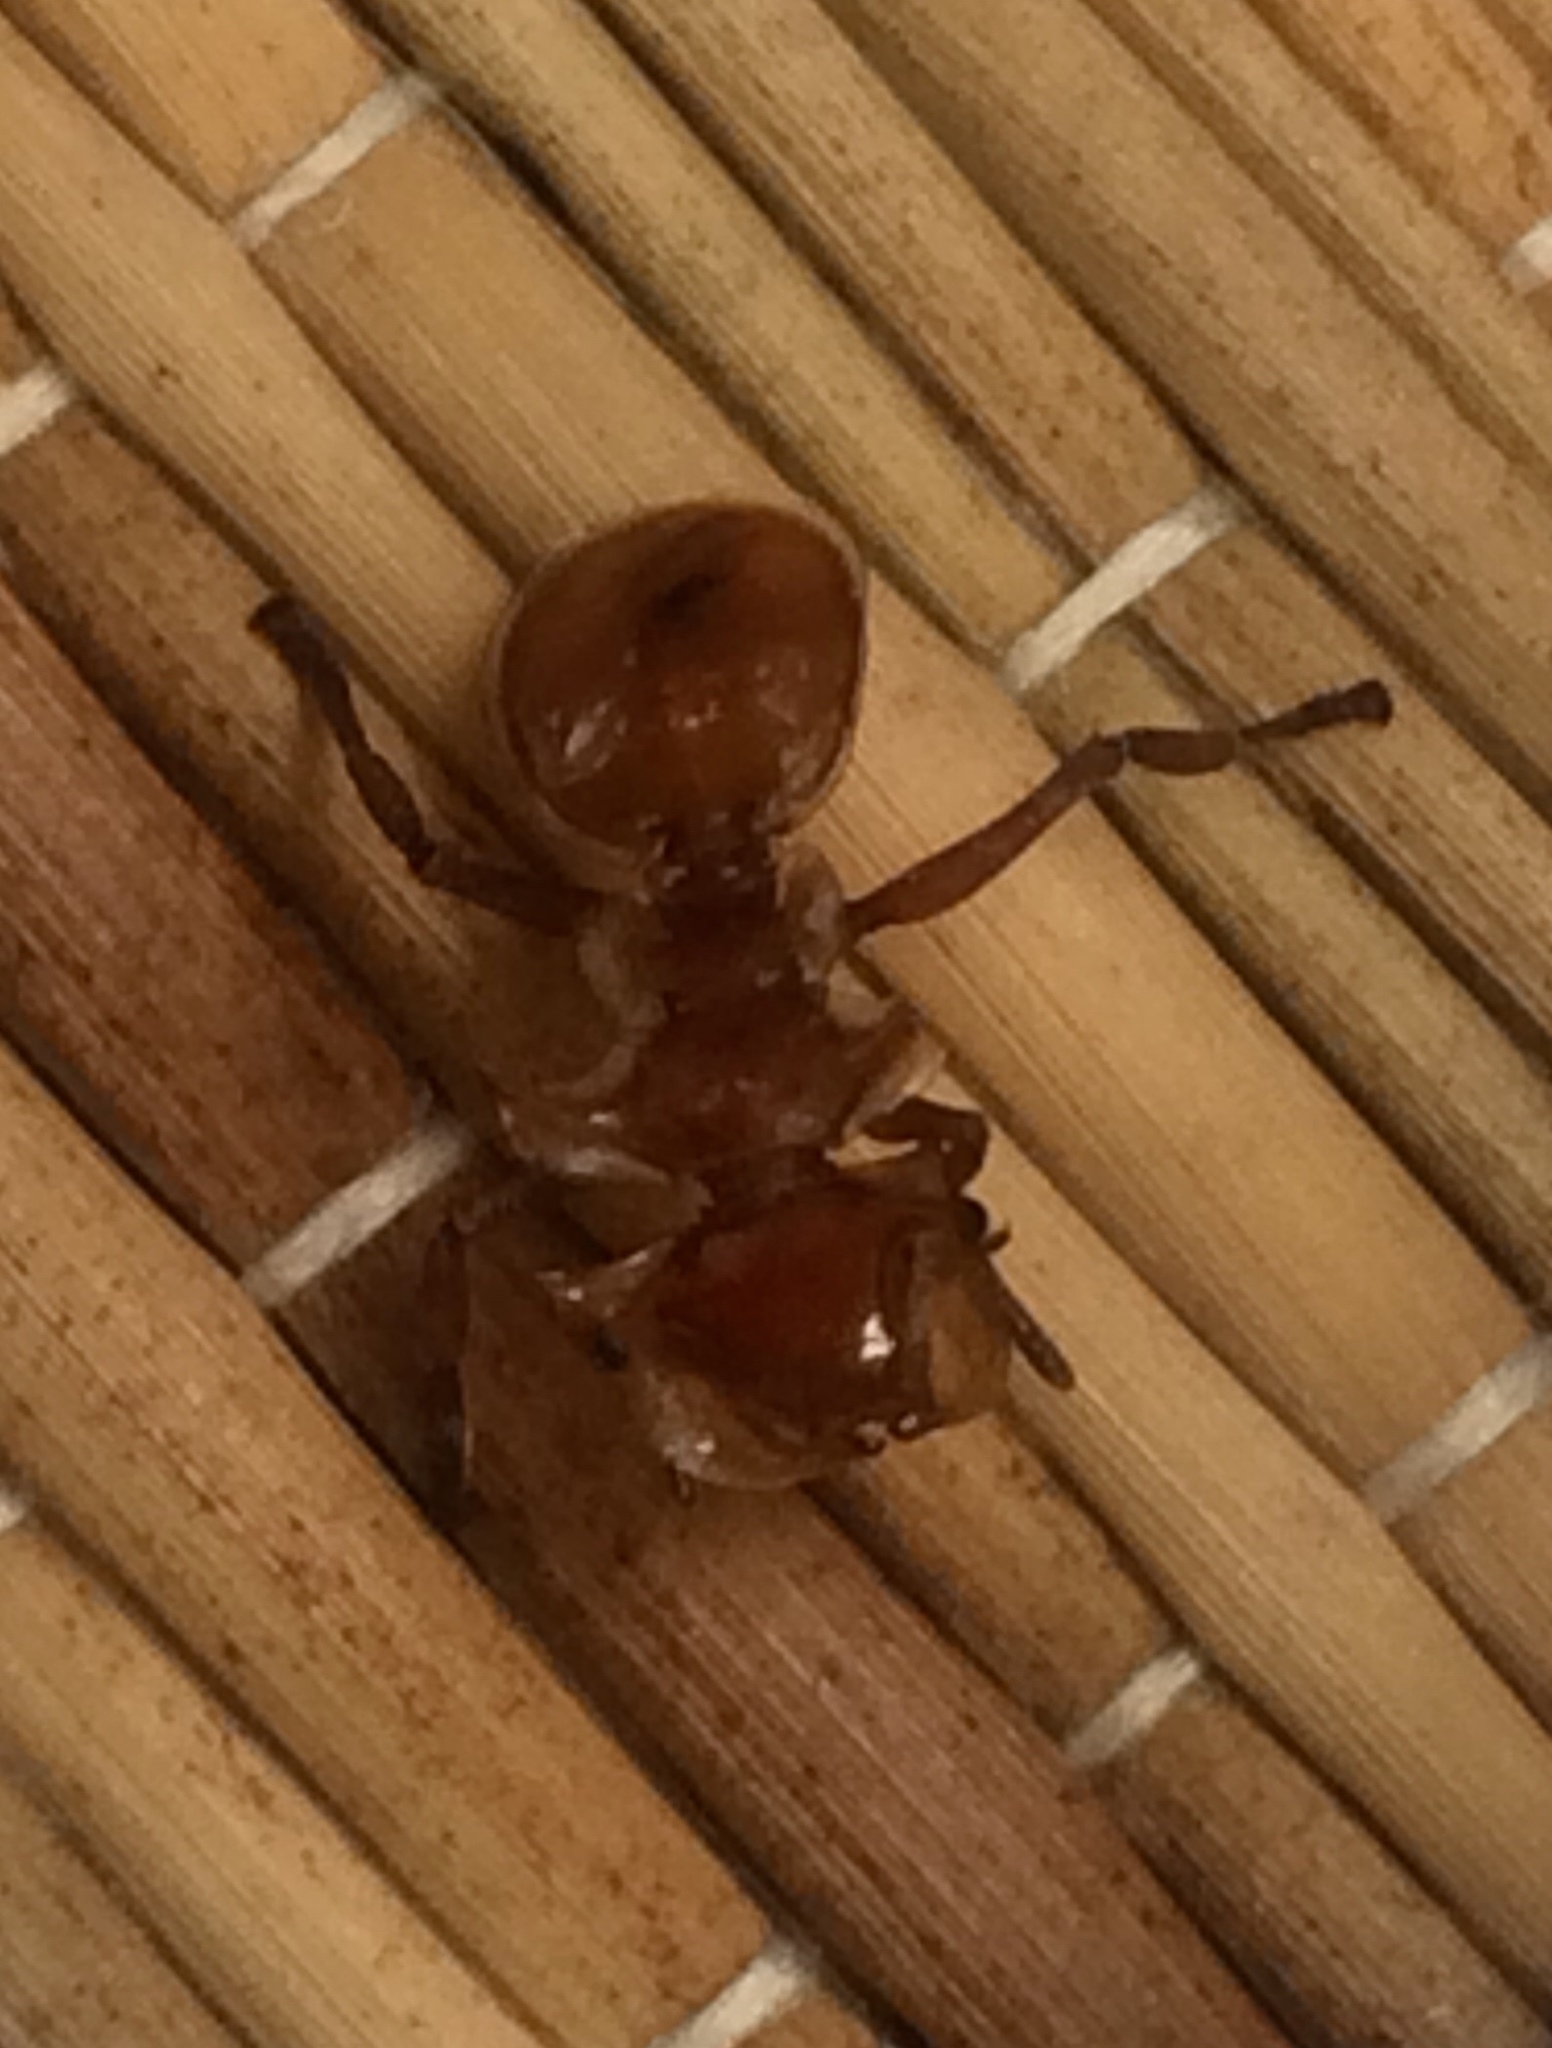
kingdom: Animalia
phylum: Arthropoda
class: Insecta
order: Hymenoptera
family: Formicidae
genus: Cephalotes
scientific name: Cephalotes clypeatus
